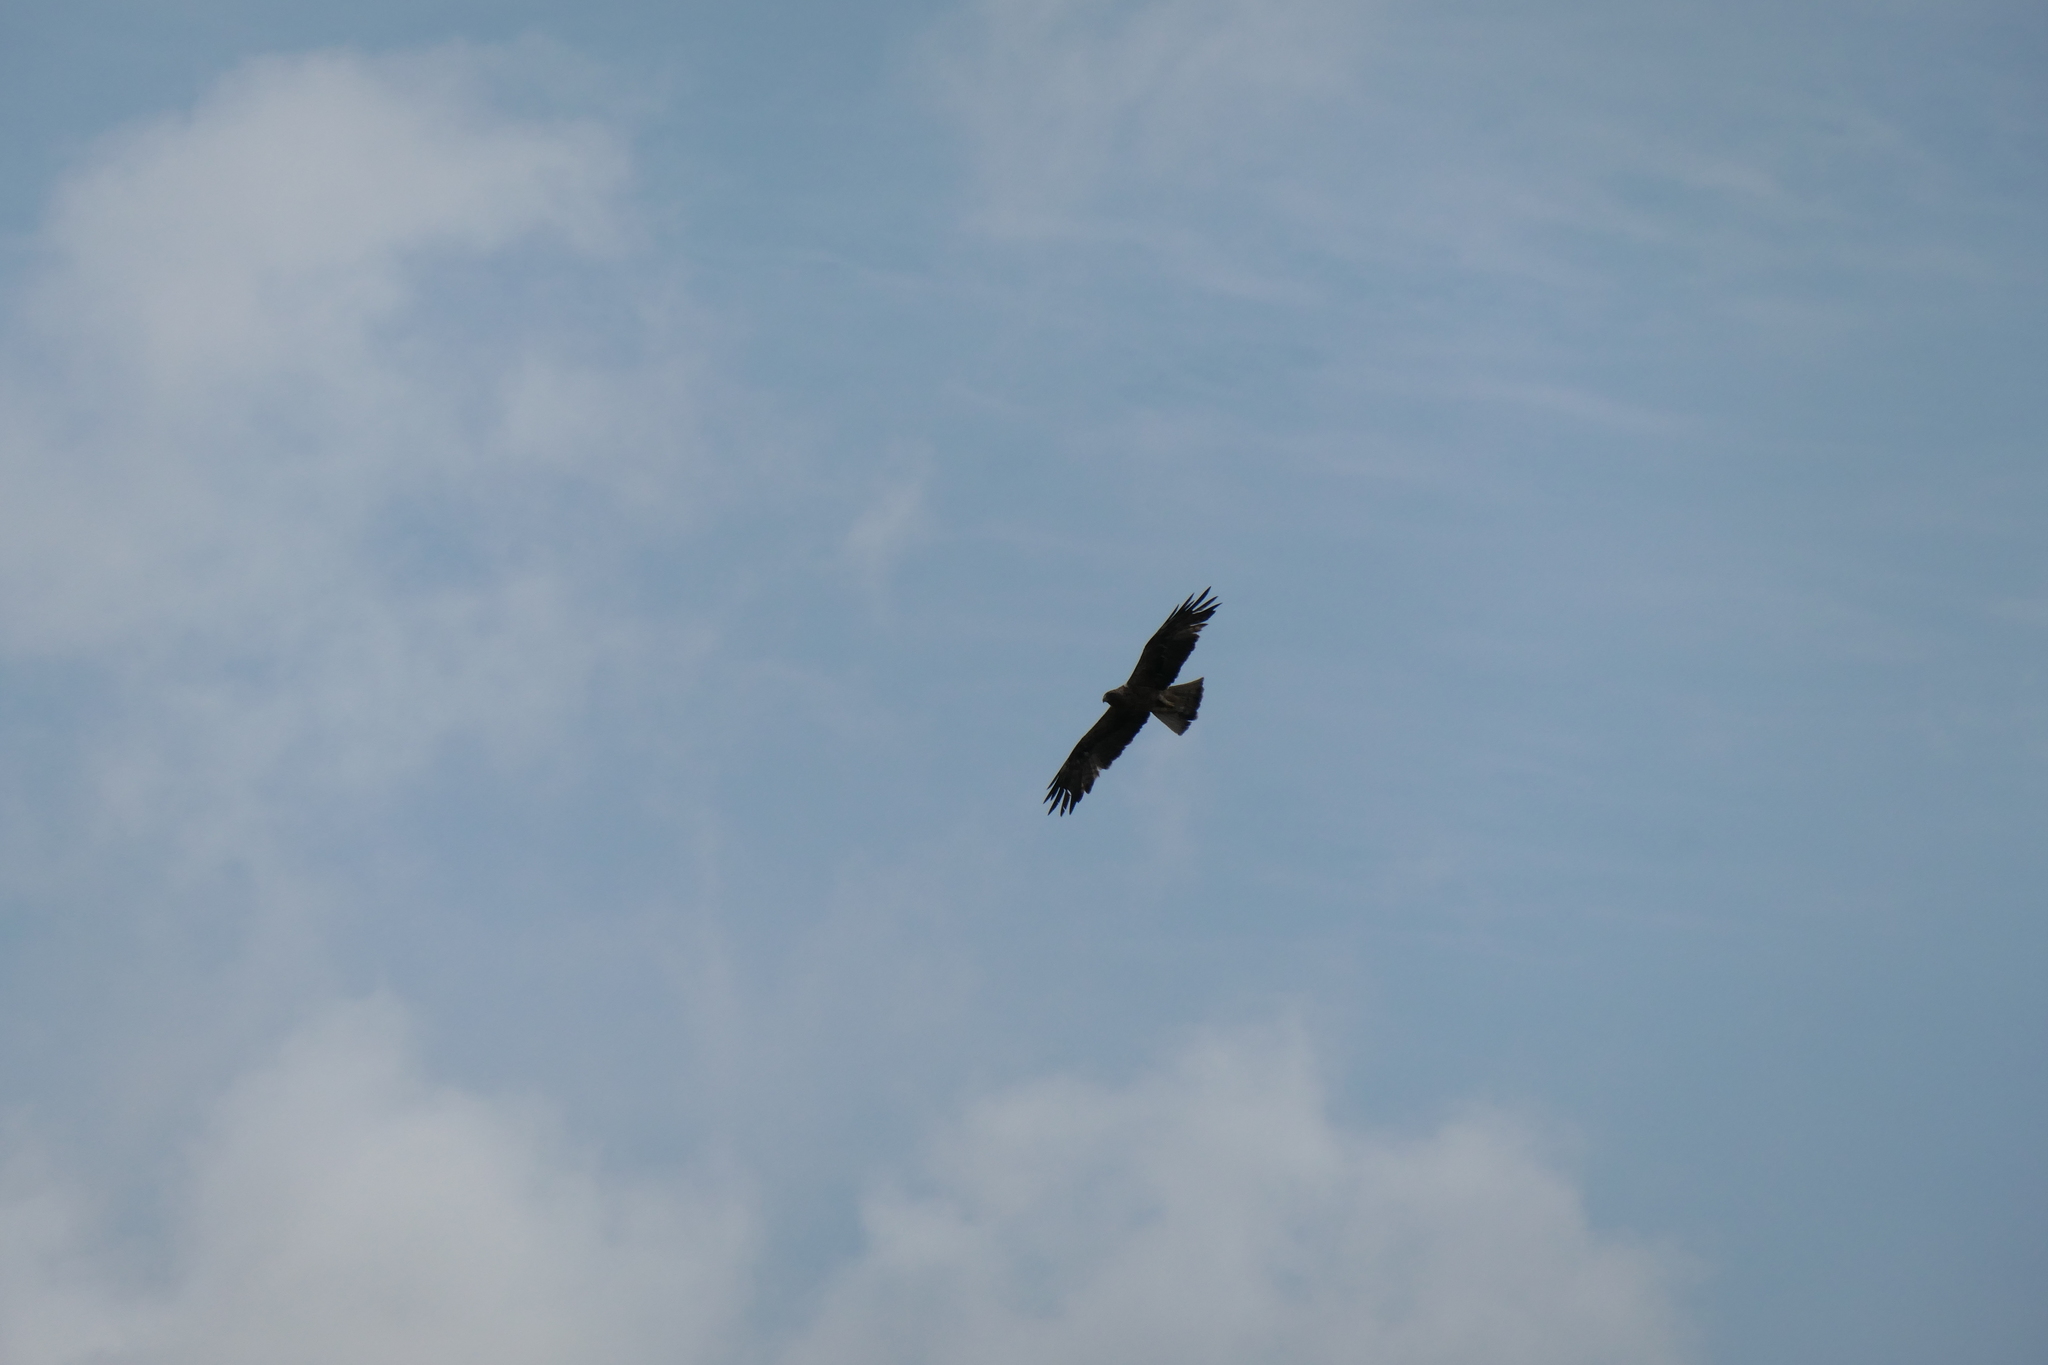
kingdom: Animalia
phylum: Chordata
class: Aves
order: Accipitriformes
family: Accipitridae
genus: Hieraaetus
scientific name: Hieraaetus pennatus
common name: Booted eagle
